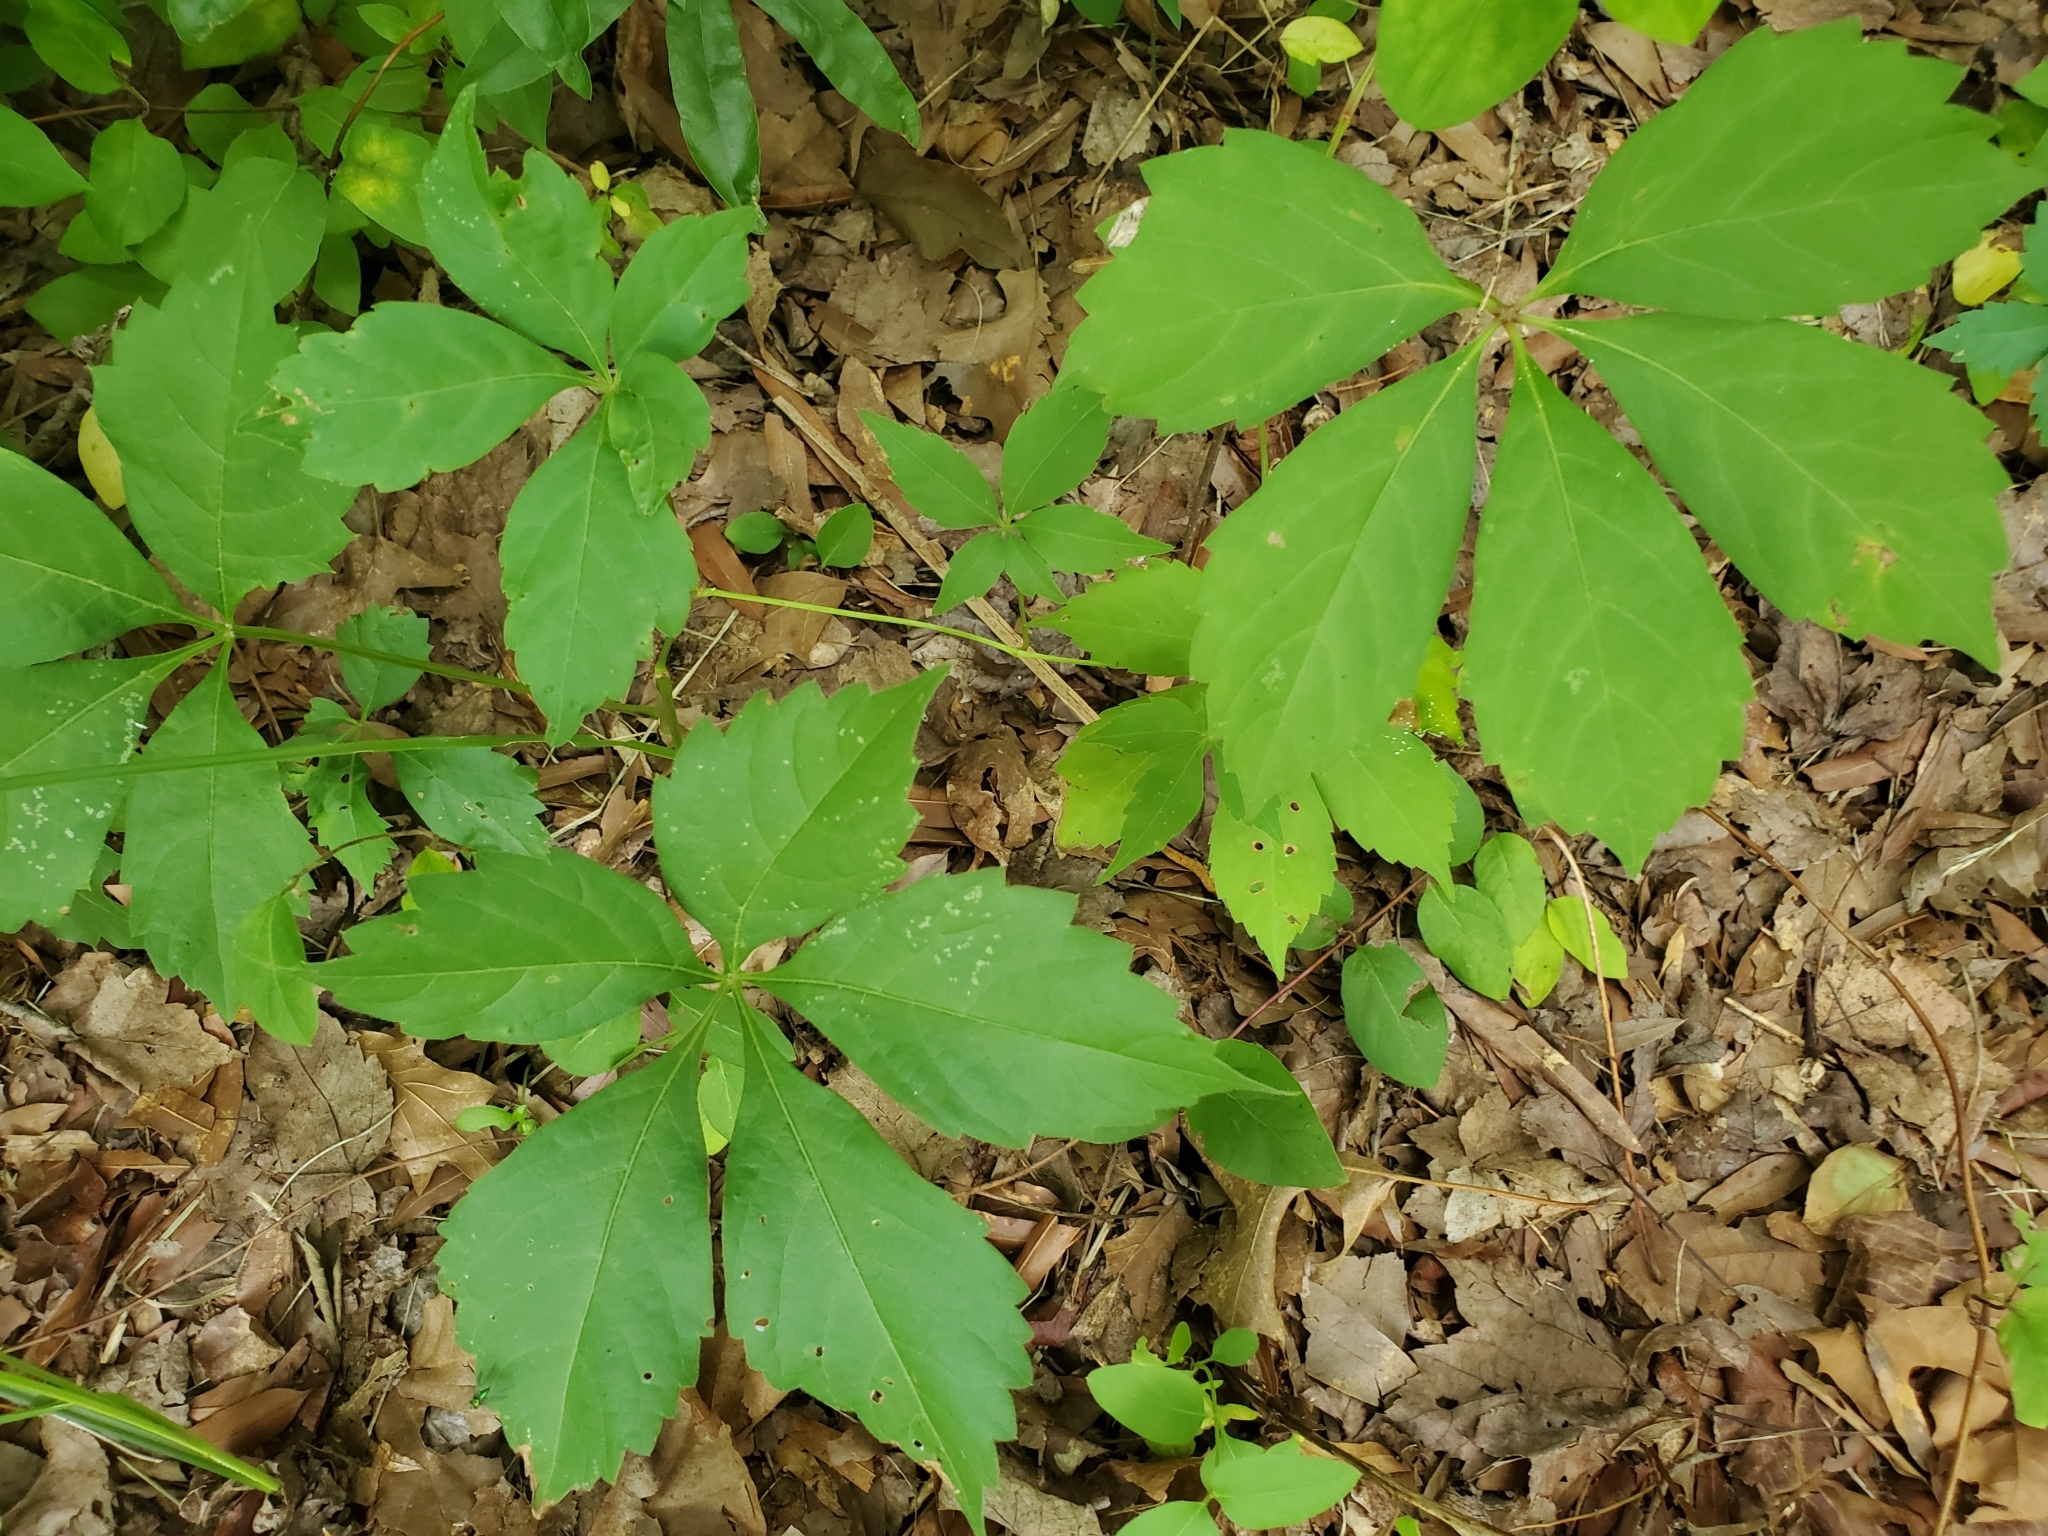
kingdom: Plantae
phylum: Tracheophyta
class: Magnoliopsida
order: Vitales
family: Vitaceae
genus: Parthenocissus
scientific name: Parthenocissus quinquefolia
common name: Virginia-creeper
